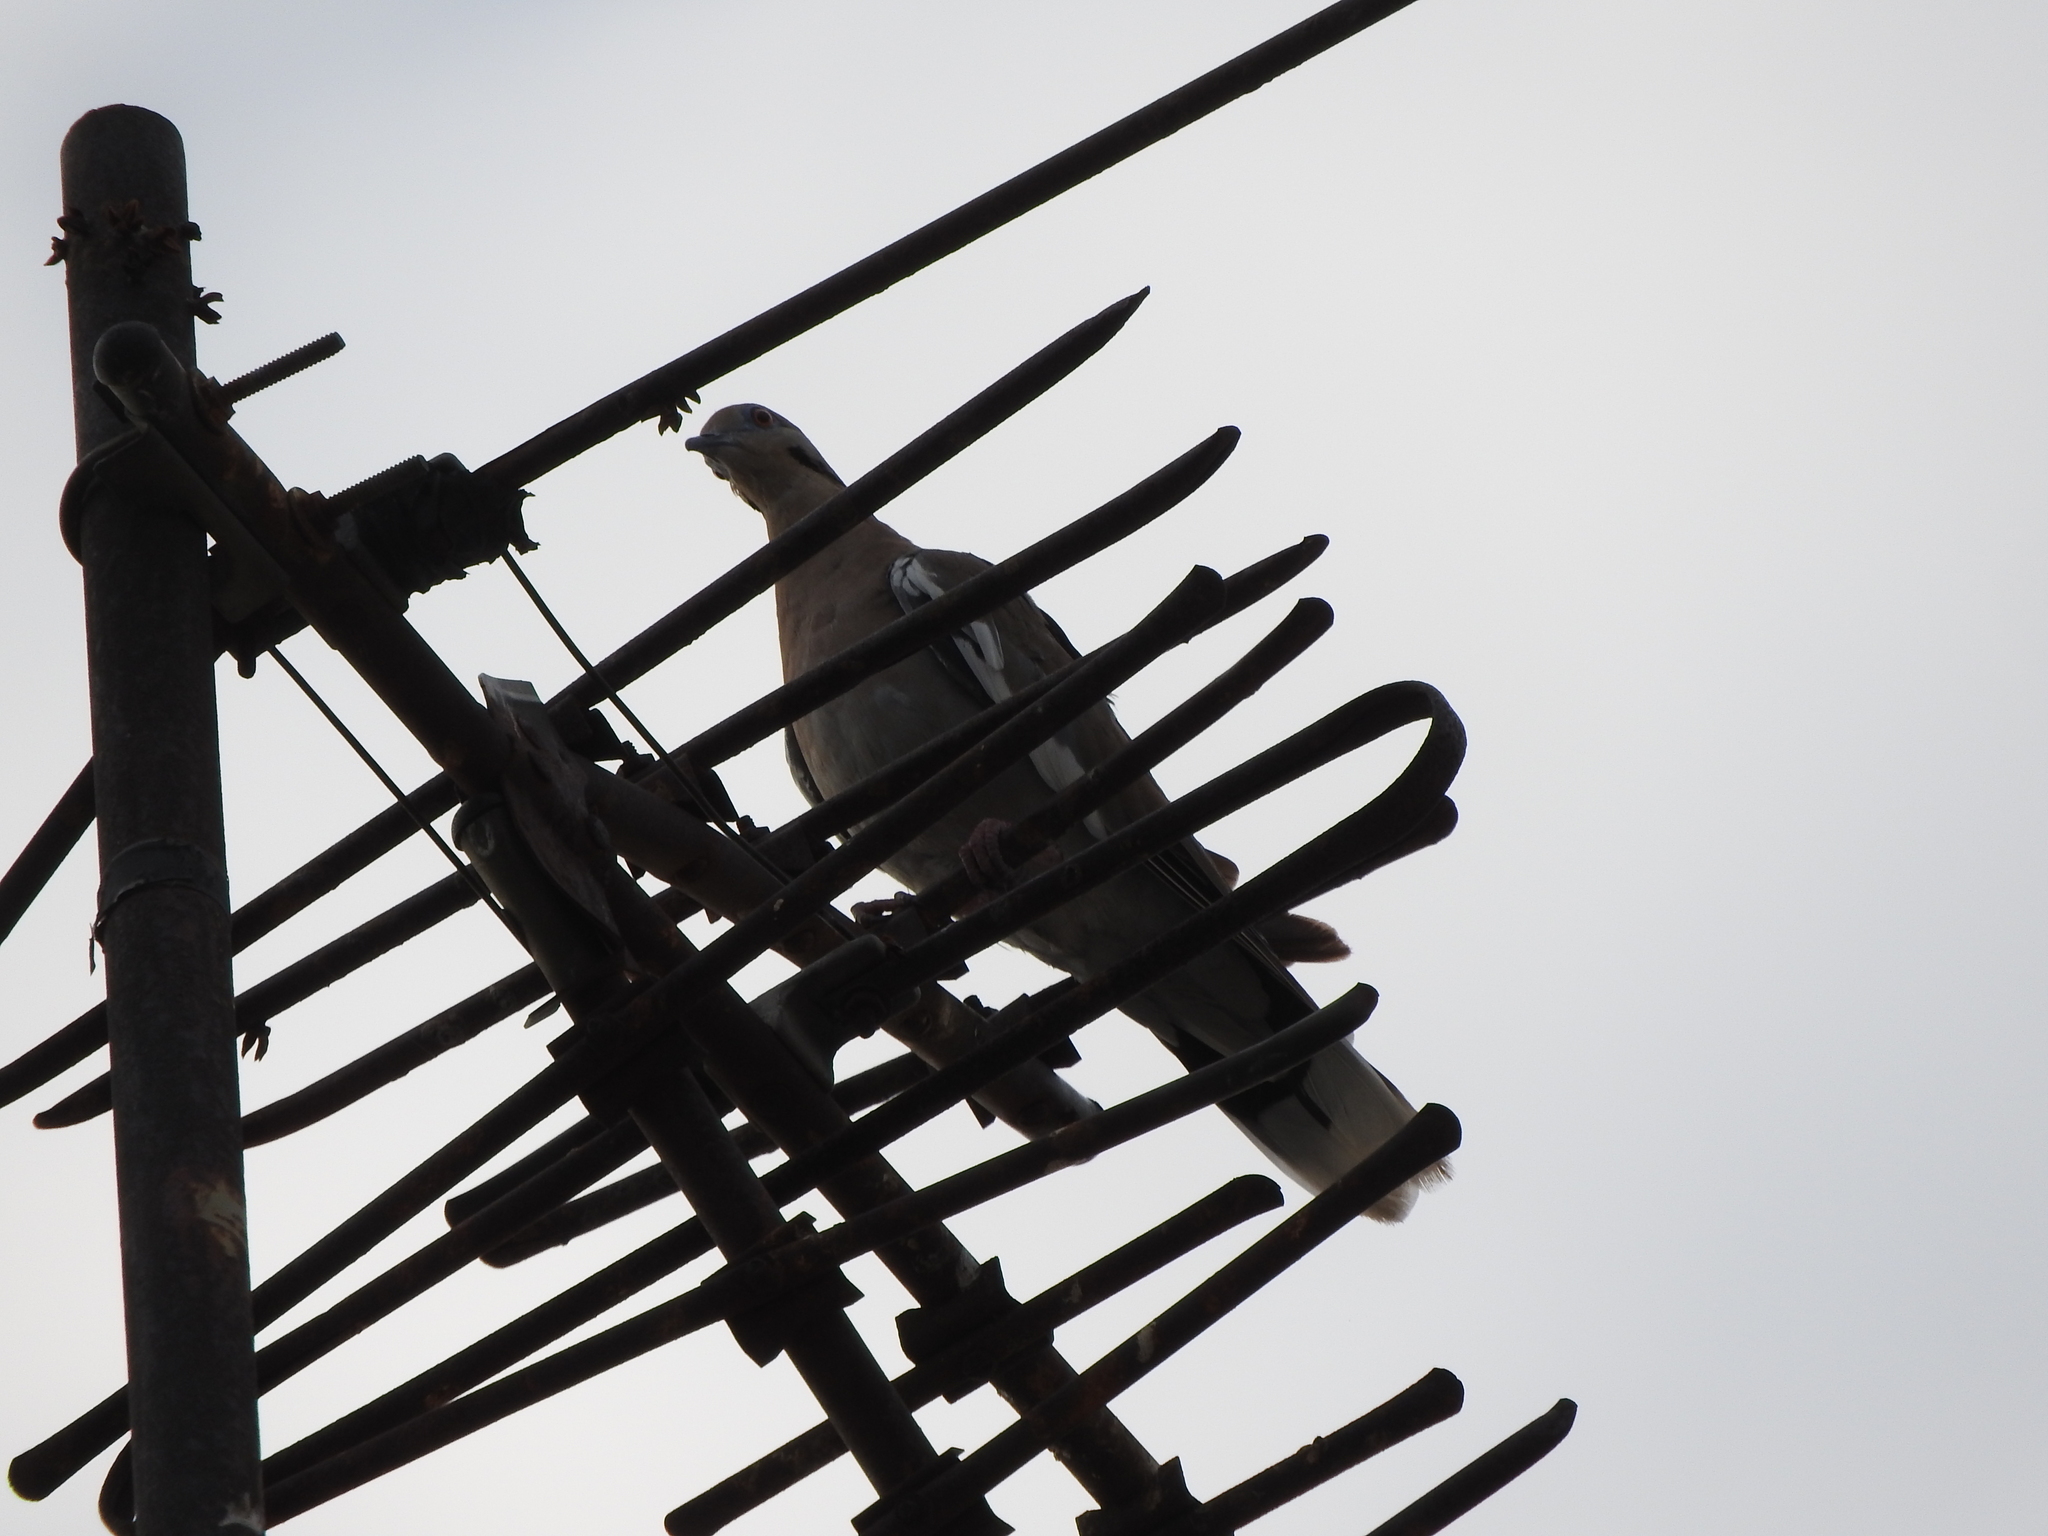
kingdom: Animalia
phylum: Chordata
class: Aves
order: Columbiformes
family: Columbidae
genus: Zenaida
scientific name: Zenaida asiatica
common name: White-winged dove
